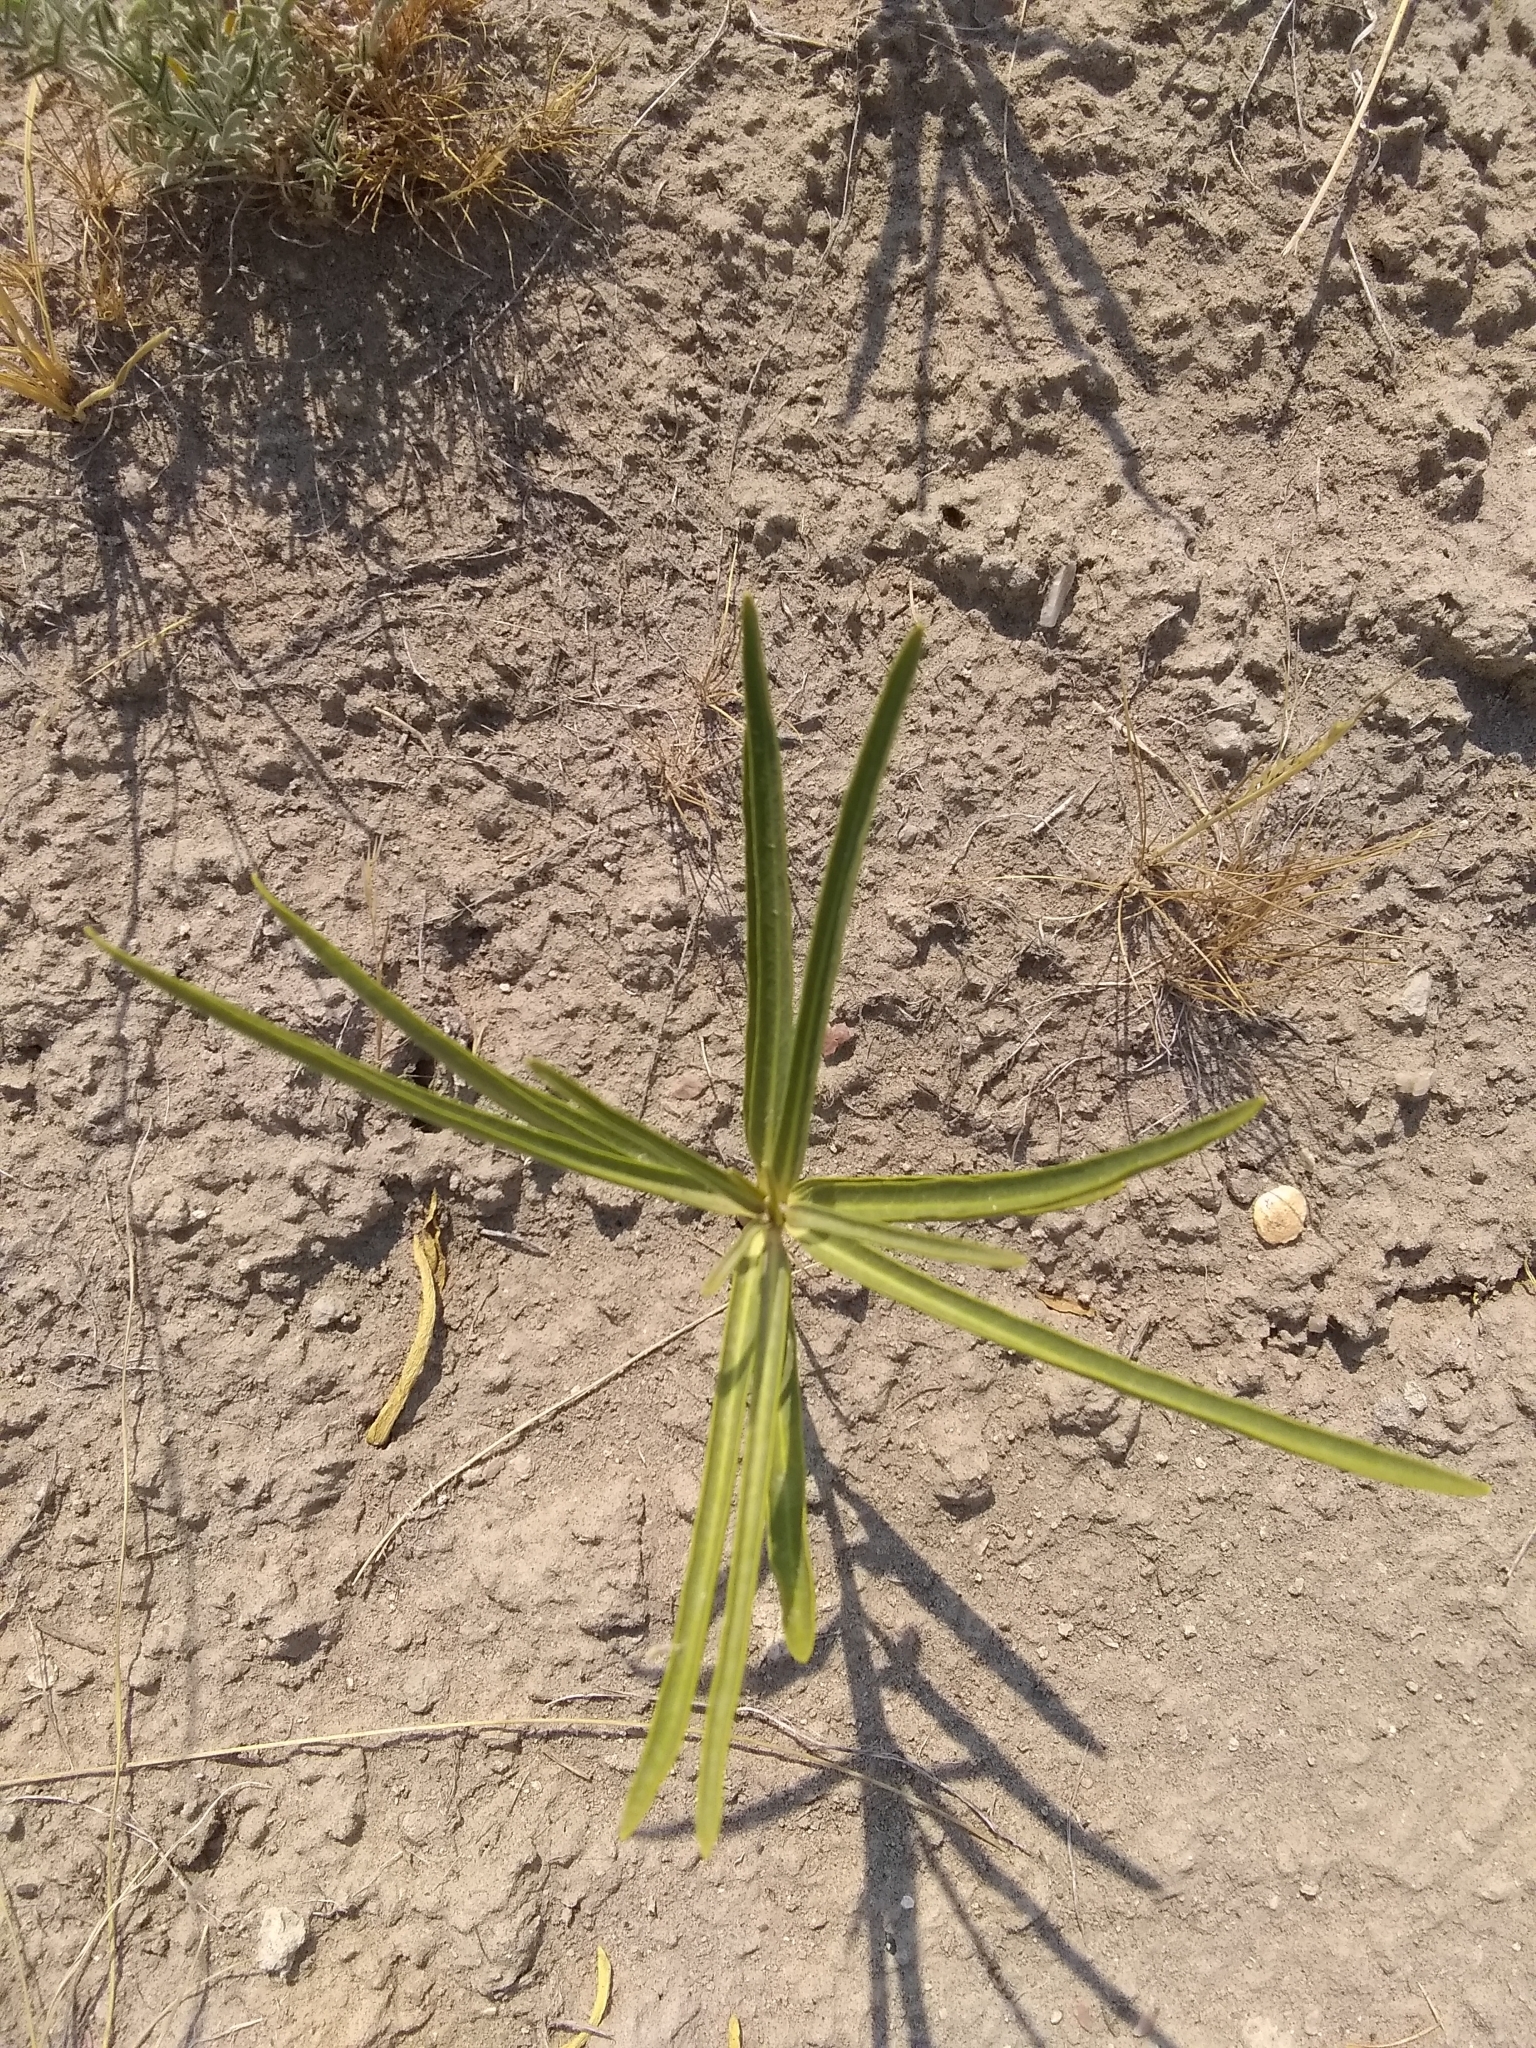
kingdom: Plantae
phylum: Tracheophyta
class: Magnoliopsida
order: Gentianales
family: Apocynaceae
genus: Asclepias
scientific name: Asclepias labriformis
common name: Labriformis milkweed
